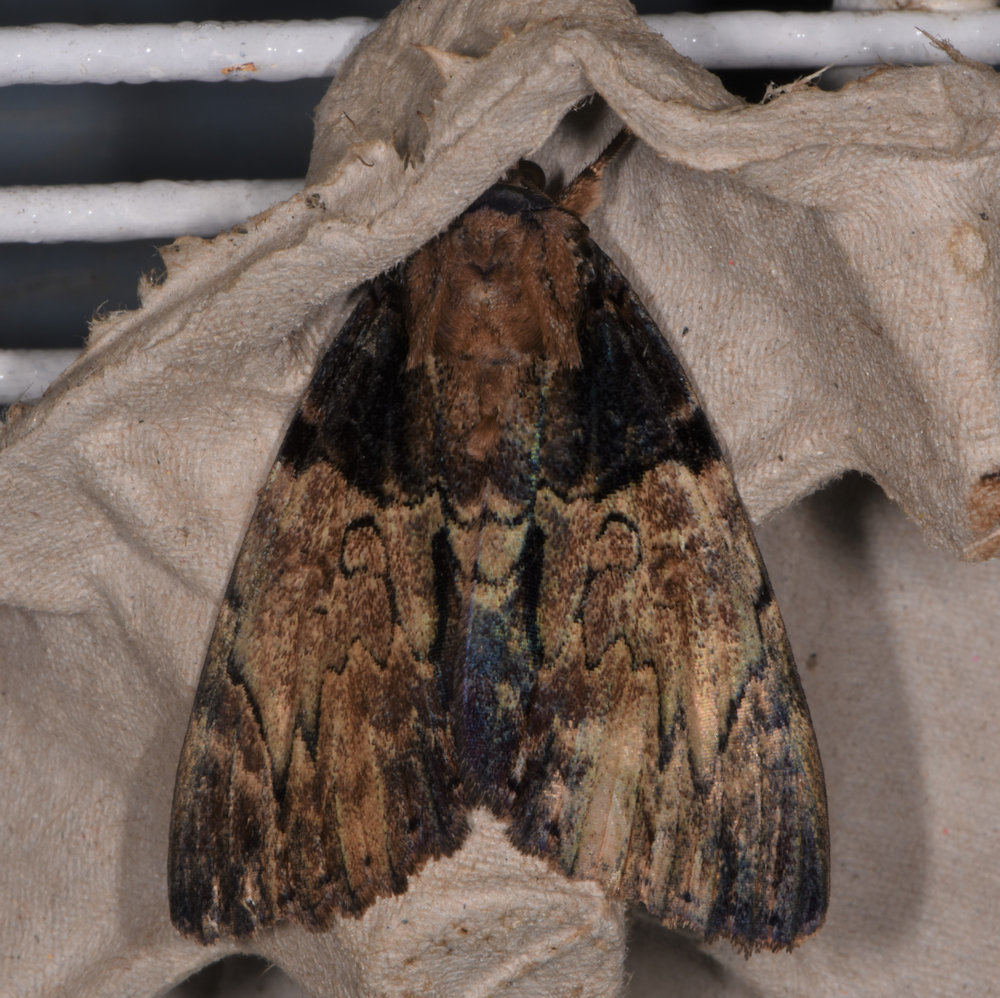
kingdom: Animalia
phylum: Arthropoda
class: Insecta
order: Lepidoptera
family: Erebidae
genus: Catocala
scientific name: Catocala nebulosa
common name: Clouded underwing
